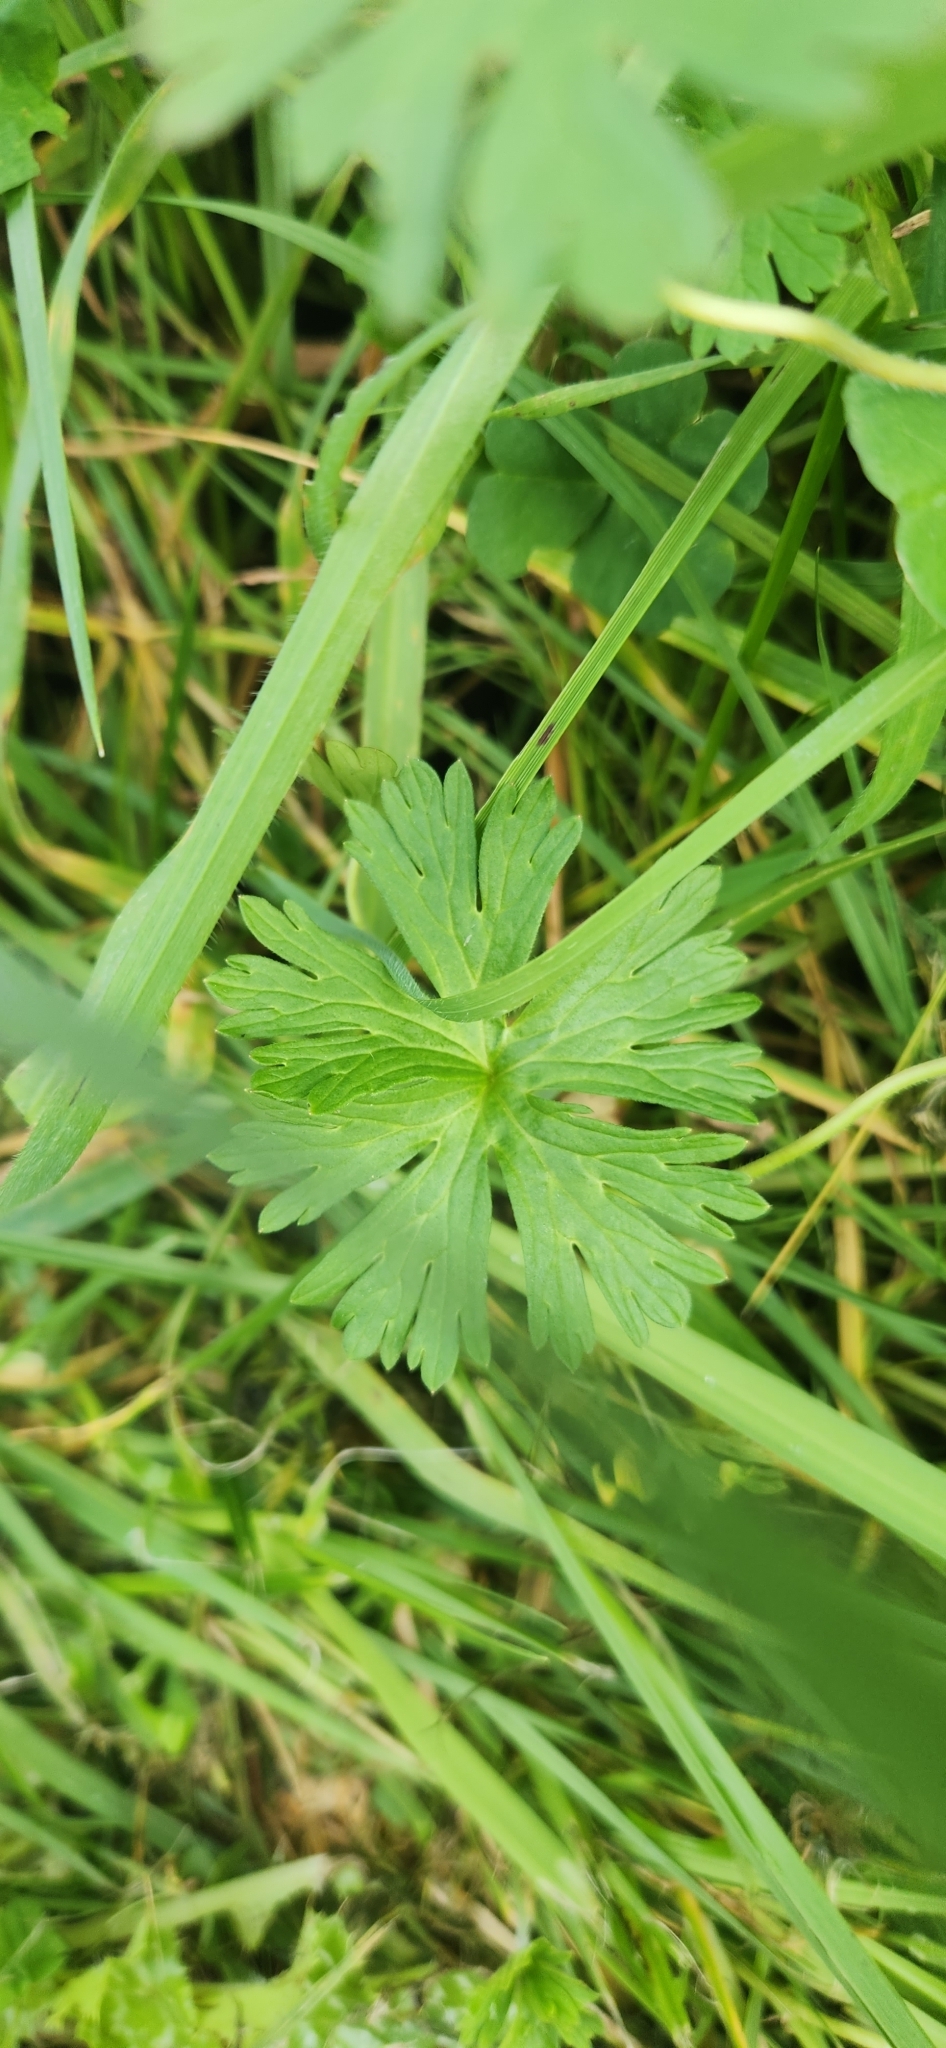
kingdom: Plantae
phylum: Tracheophyta
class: Magnoliopsida
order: Geraniales
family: Geraniaceae
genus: Geranium
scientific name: Geranium
